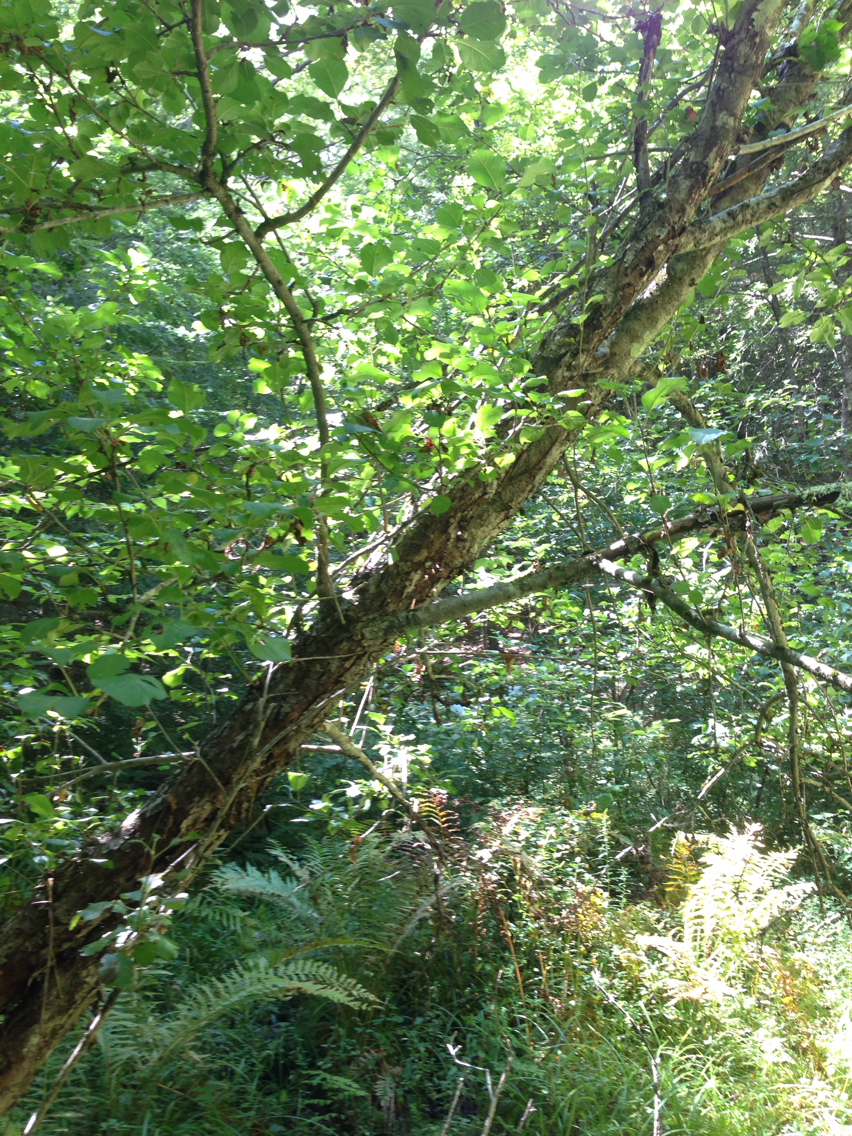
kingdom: Plantae
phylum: Tracheophyta
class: Magnoliopsida
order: Rosales
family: Rosaceae
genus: Malus
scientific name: Malus domestica
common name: Apple
